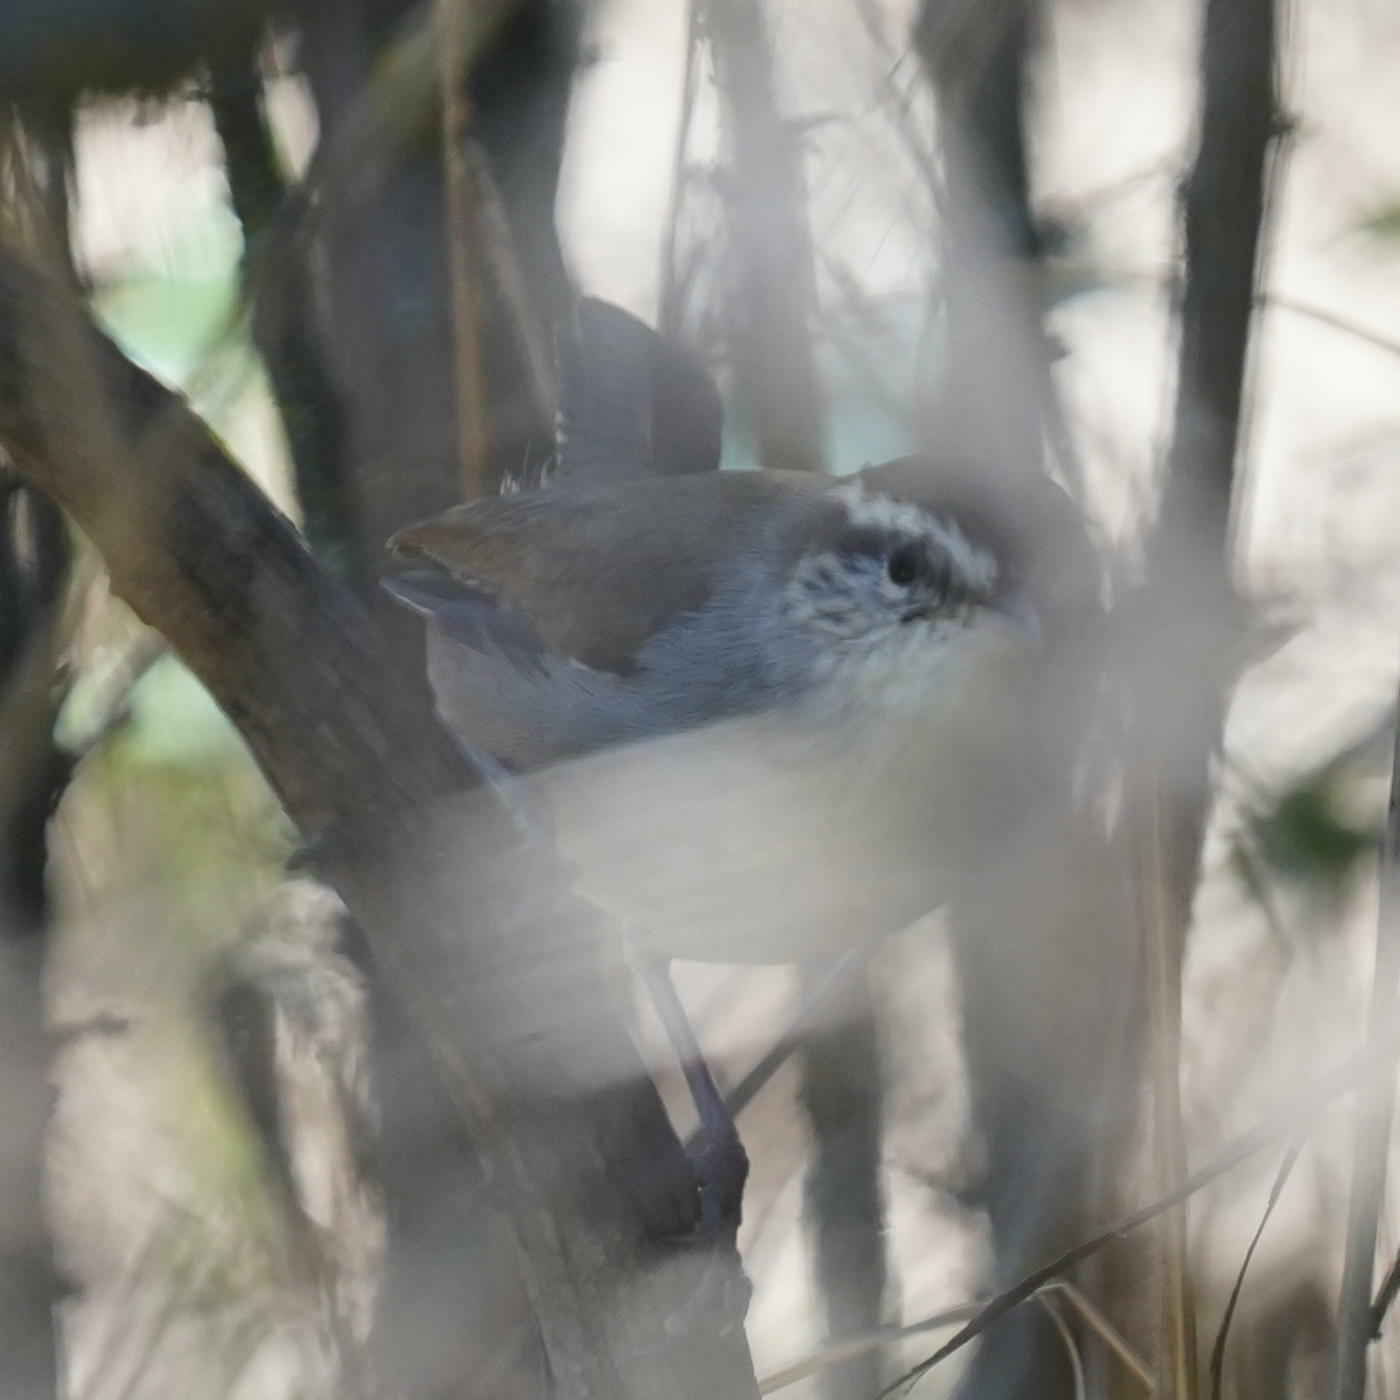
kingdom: Animalia
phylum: Chordata
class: Aves
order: Passeriformes
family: Troglodytidae
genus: Thryomanes
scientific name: Thryomanes bewickii
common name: Bewick's wren
